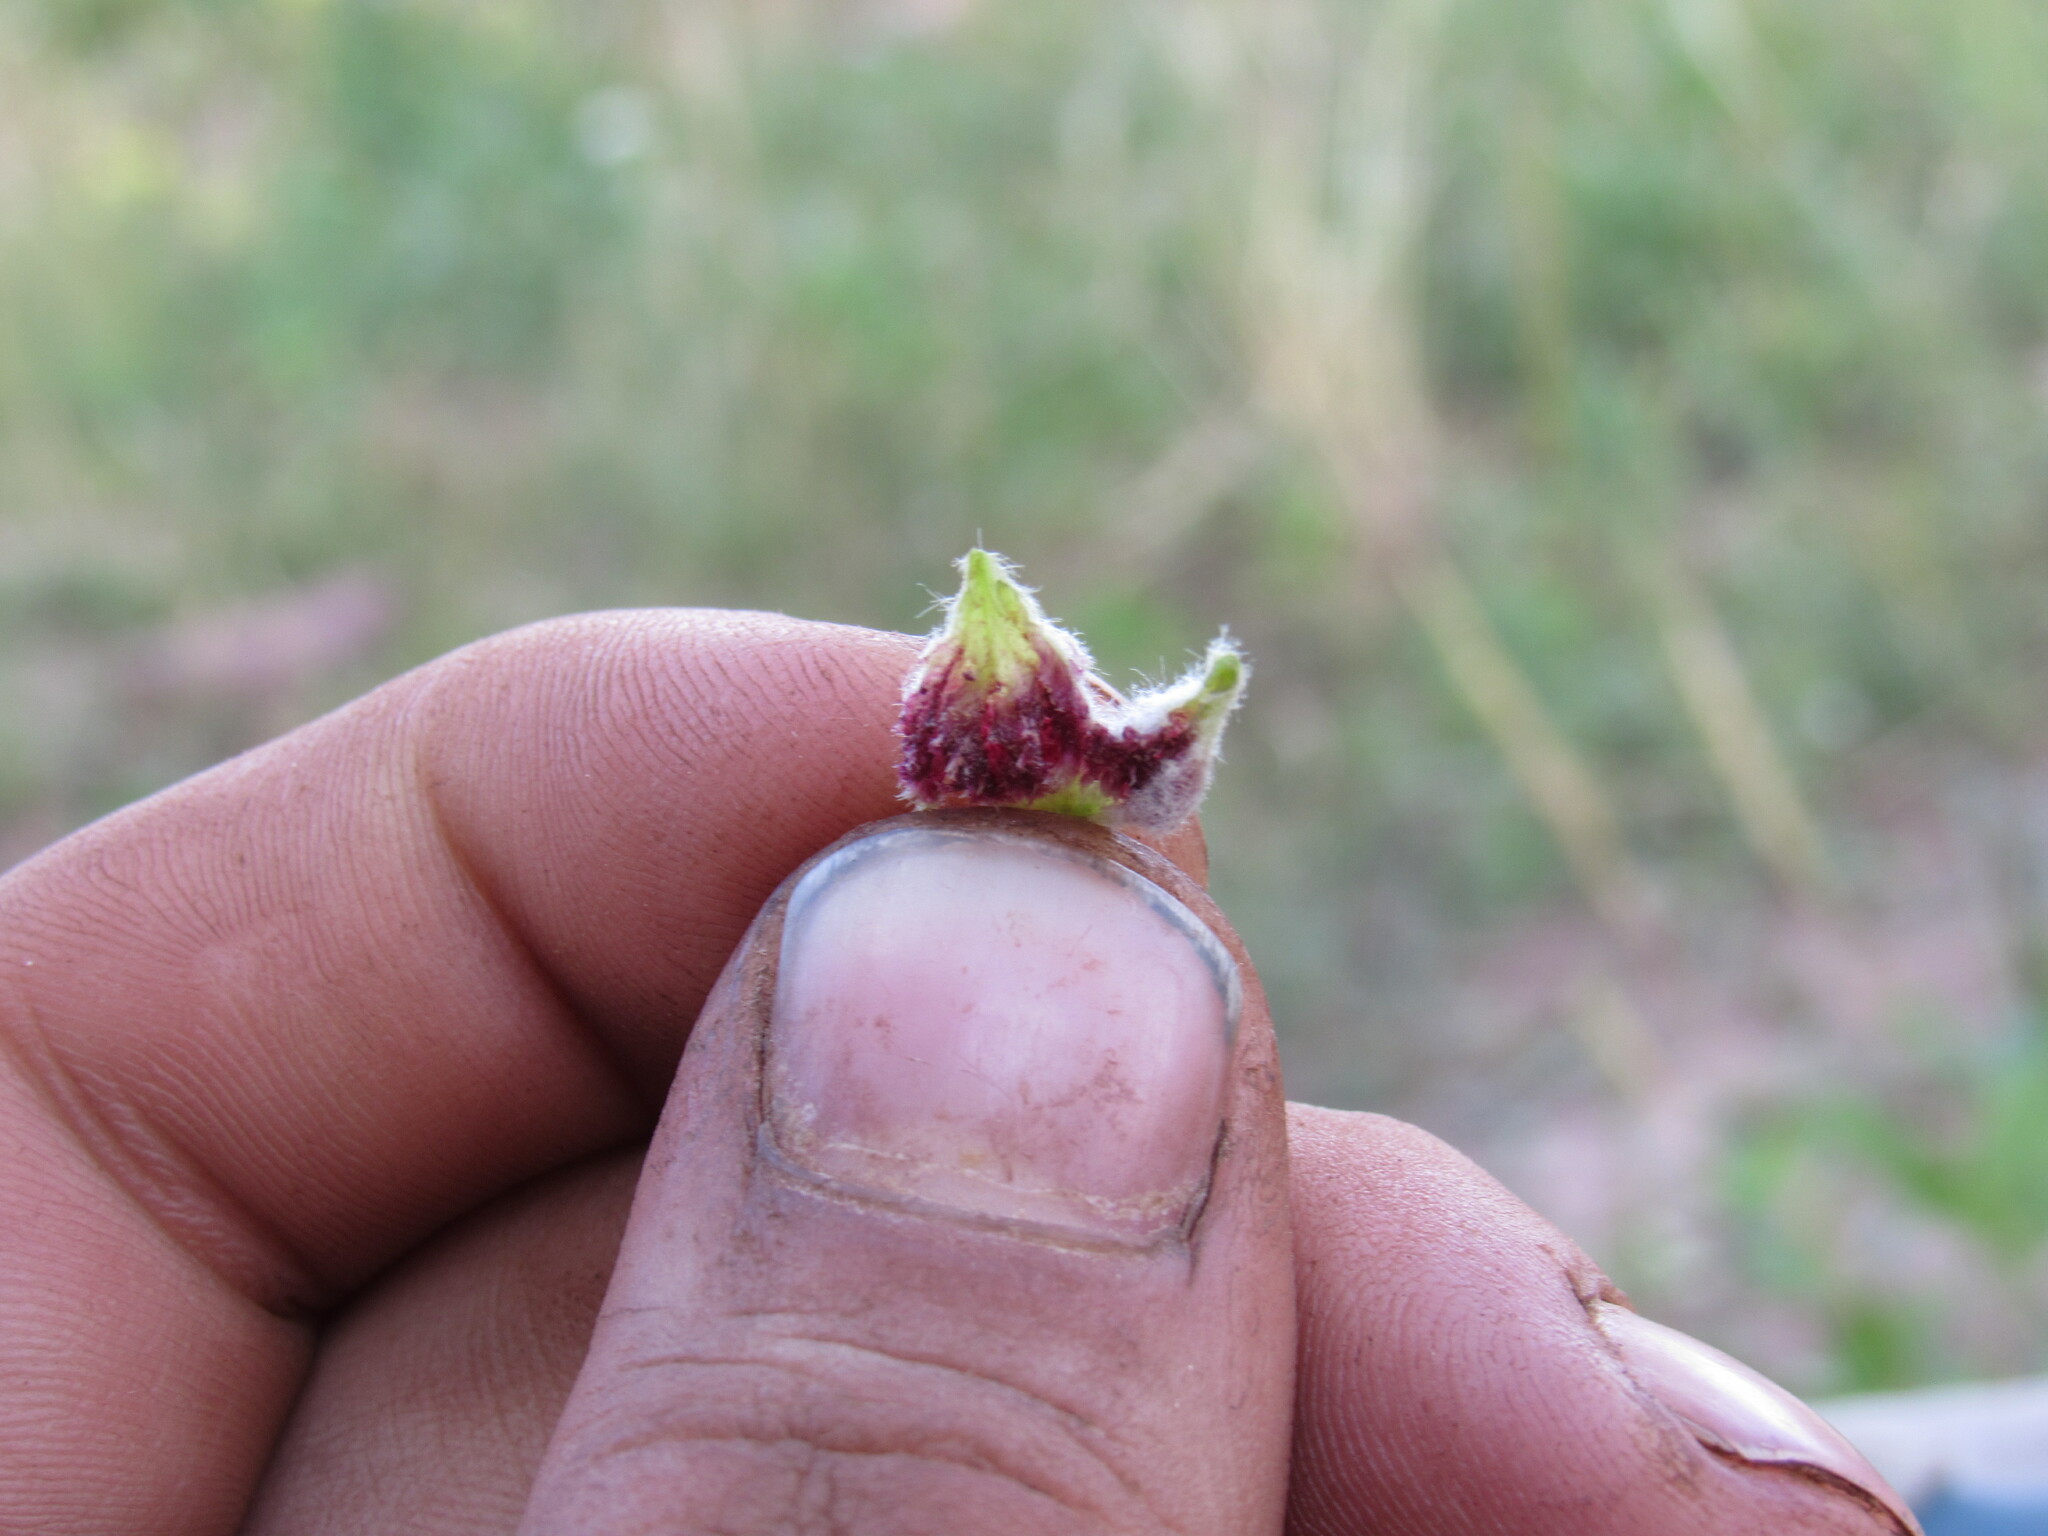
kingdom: Animalia
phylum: Arthropoda
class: Arachnida
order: Trombidiformes
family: Eriophyidae
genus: Aceria
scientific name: Aceria kiefferi
